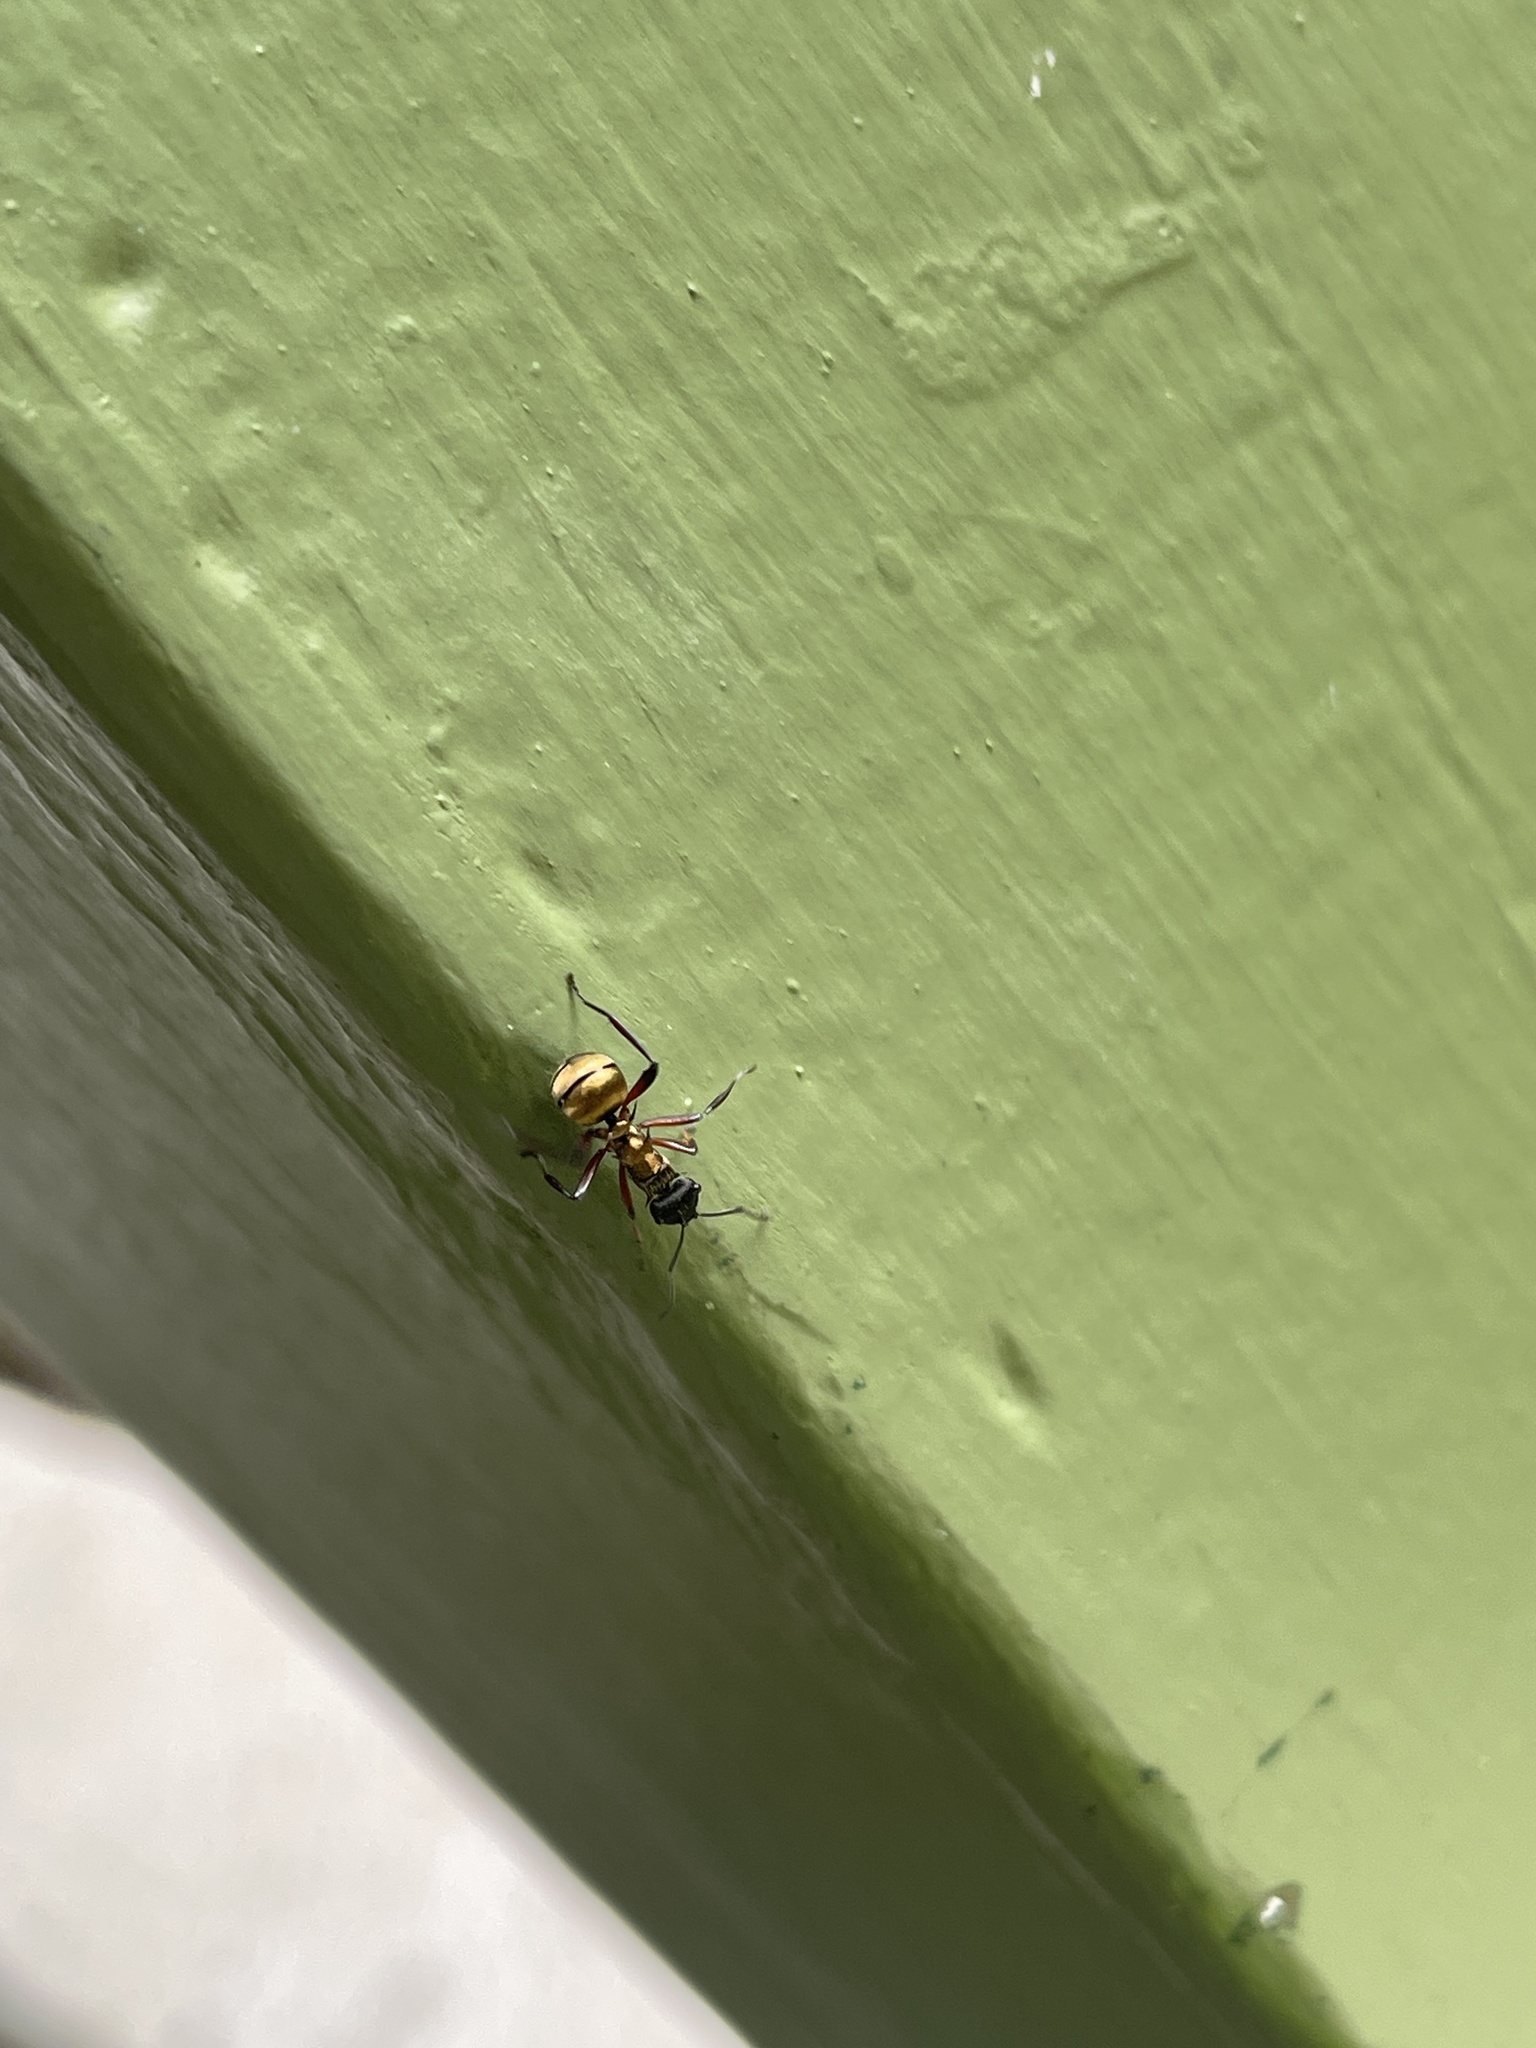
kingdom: Animalia
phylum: Arthropoda
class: Insecta
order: Hymenoptera
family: Formicidae
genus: Polyrhachis
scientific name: Polyrhachis rufifemur
